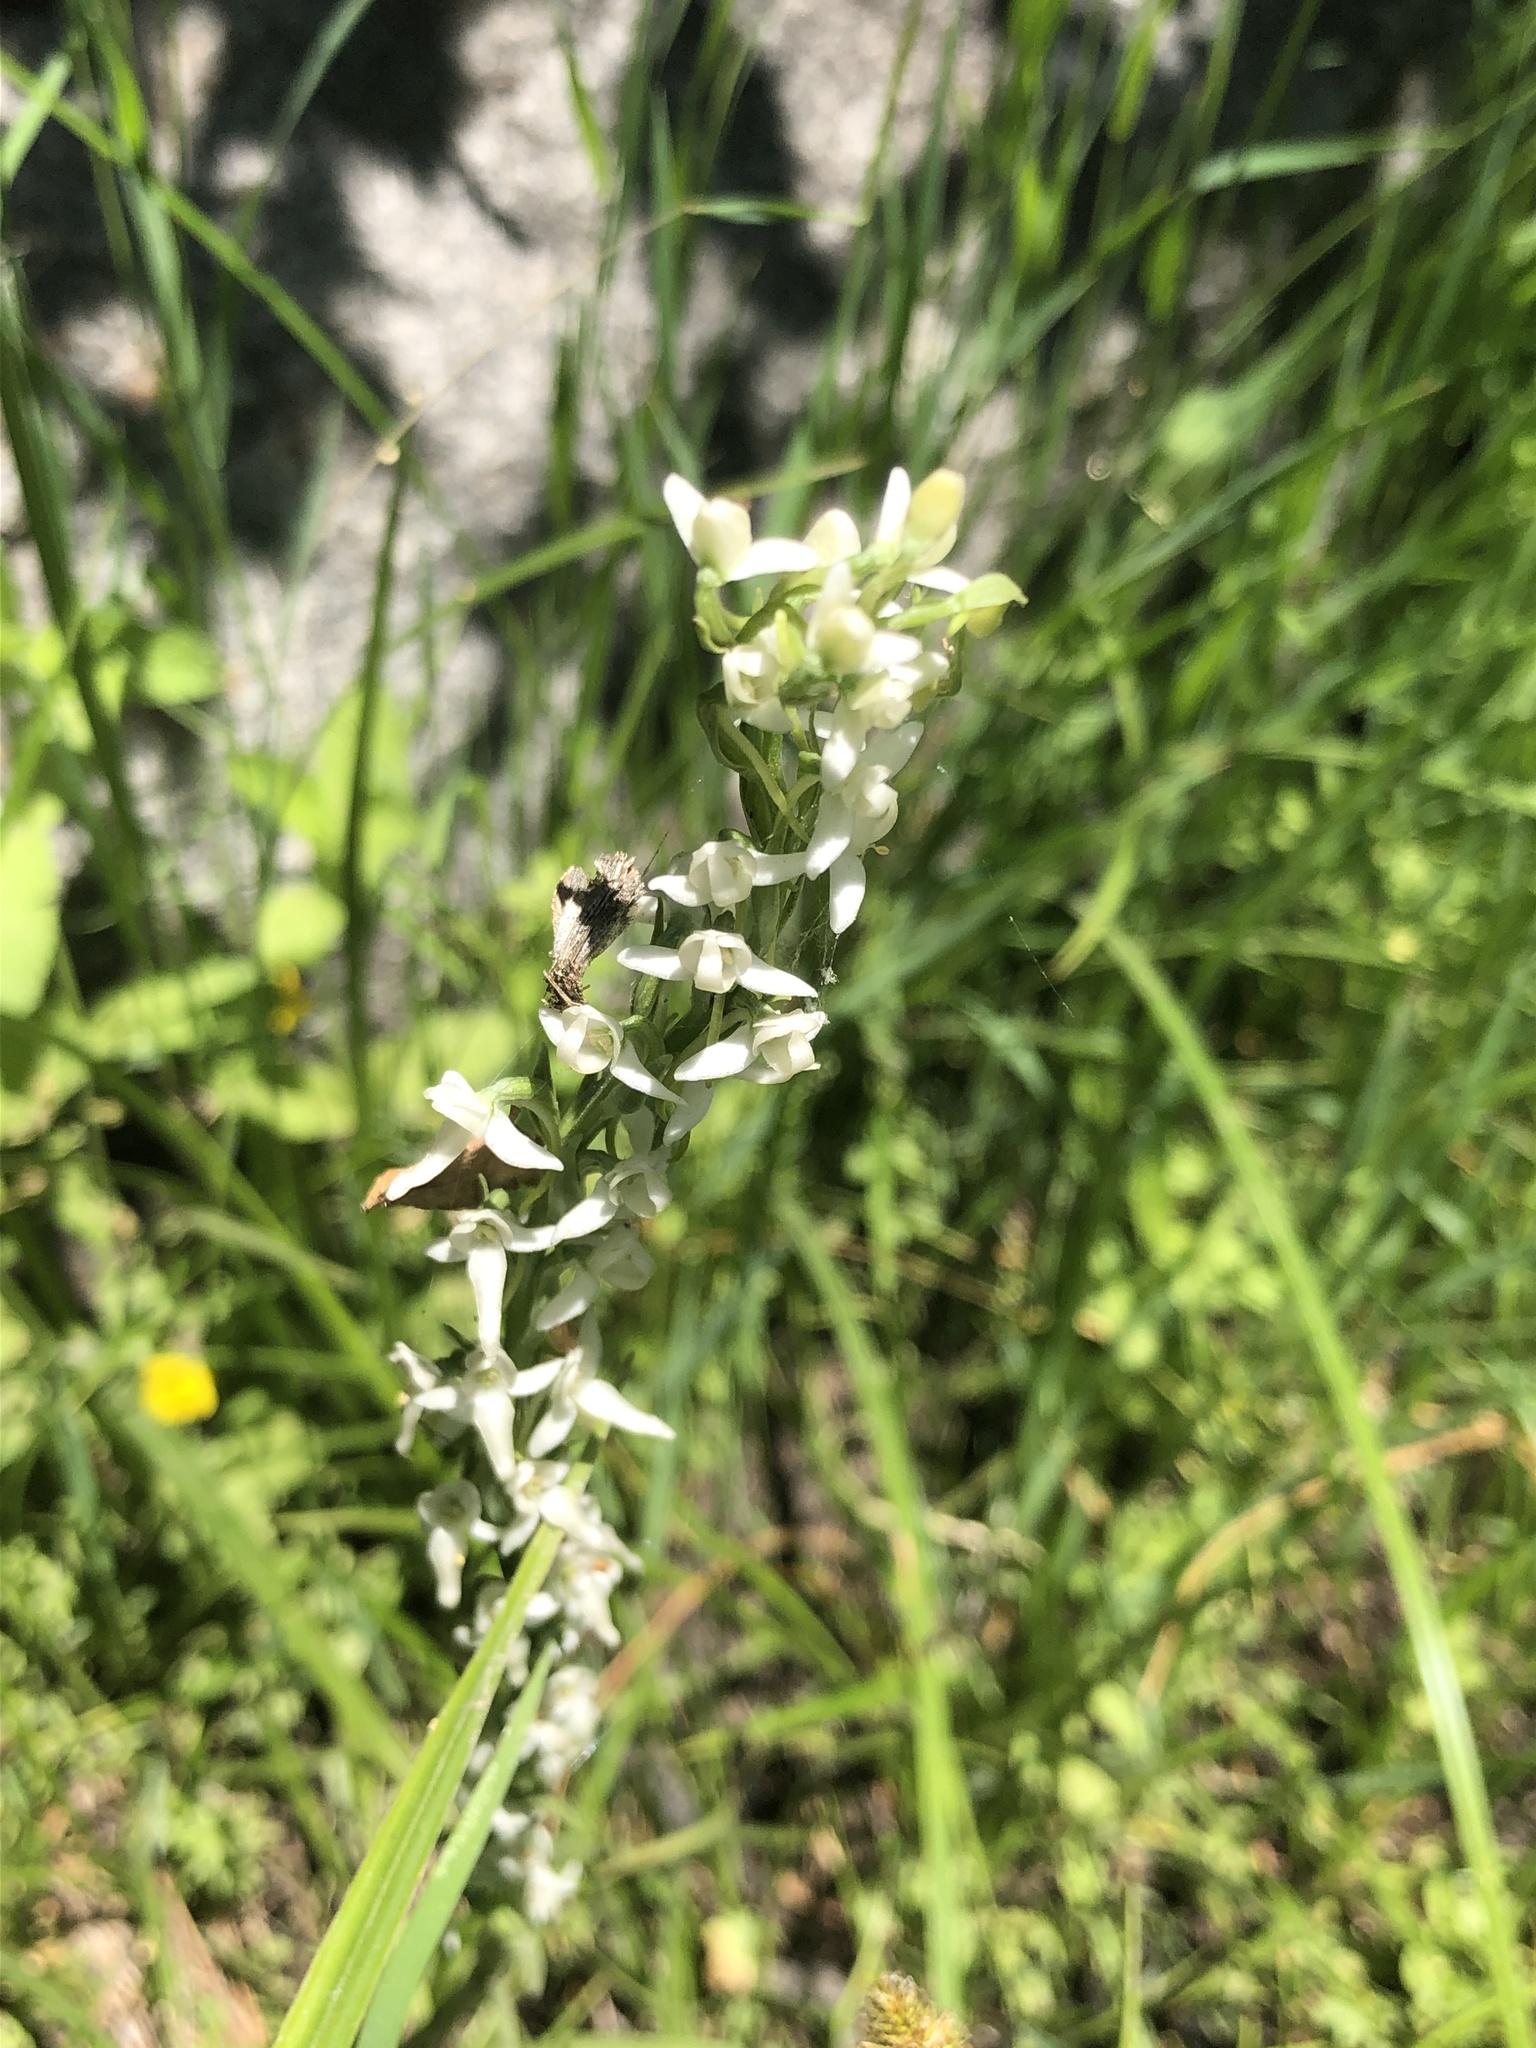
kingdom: Plantae
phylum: Tracheophyta
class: Liliopsida
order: Asparagales
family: Orchidaceae
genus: Platanthera
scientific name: Platanthera dilatata
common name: Bog candles
